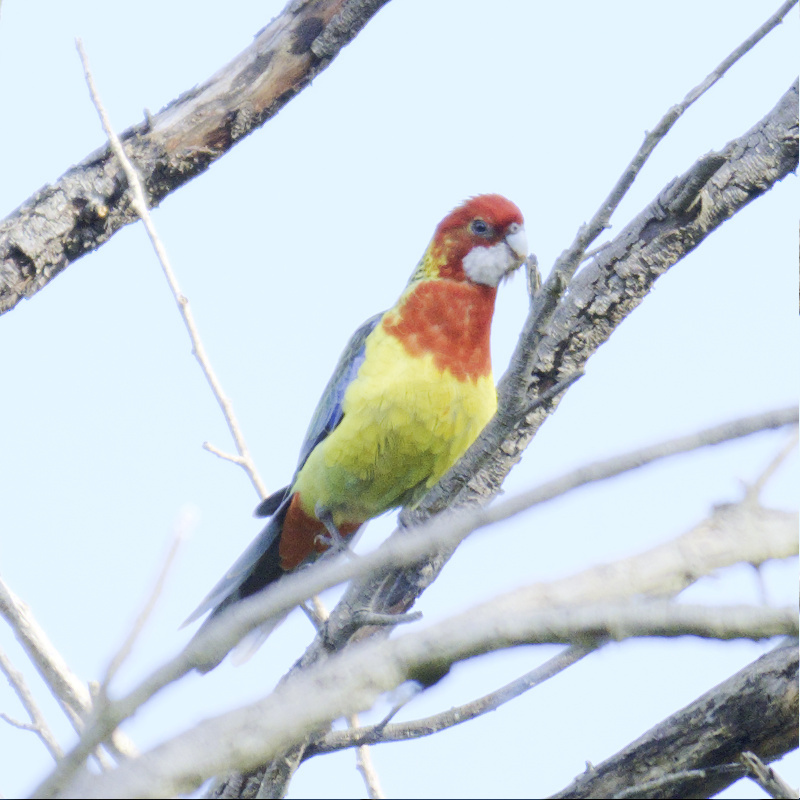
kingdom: Animalia
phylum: Chordata
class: Aves
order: Psittaciformes
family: Psittacidae
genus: Platycercus
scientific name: Platycercus eximius
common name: Eastern rosella
